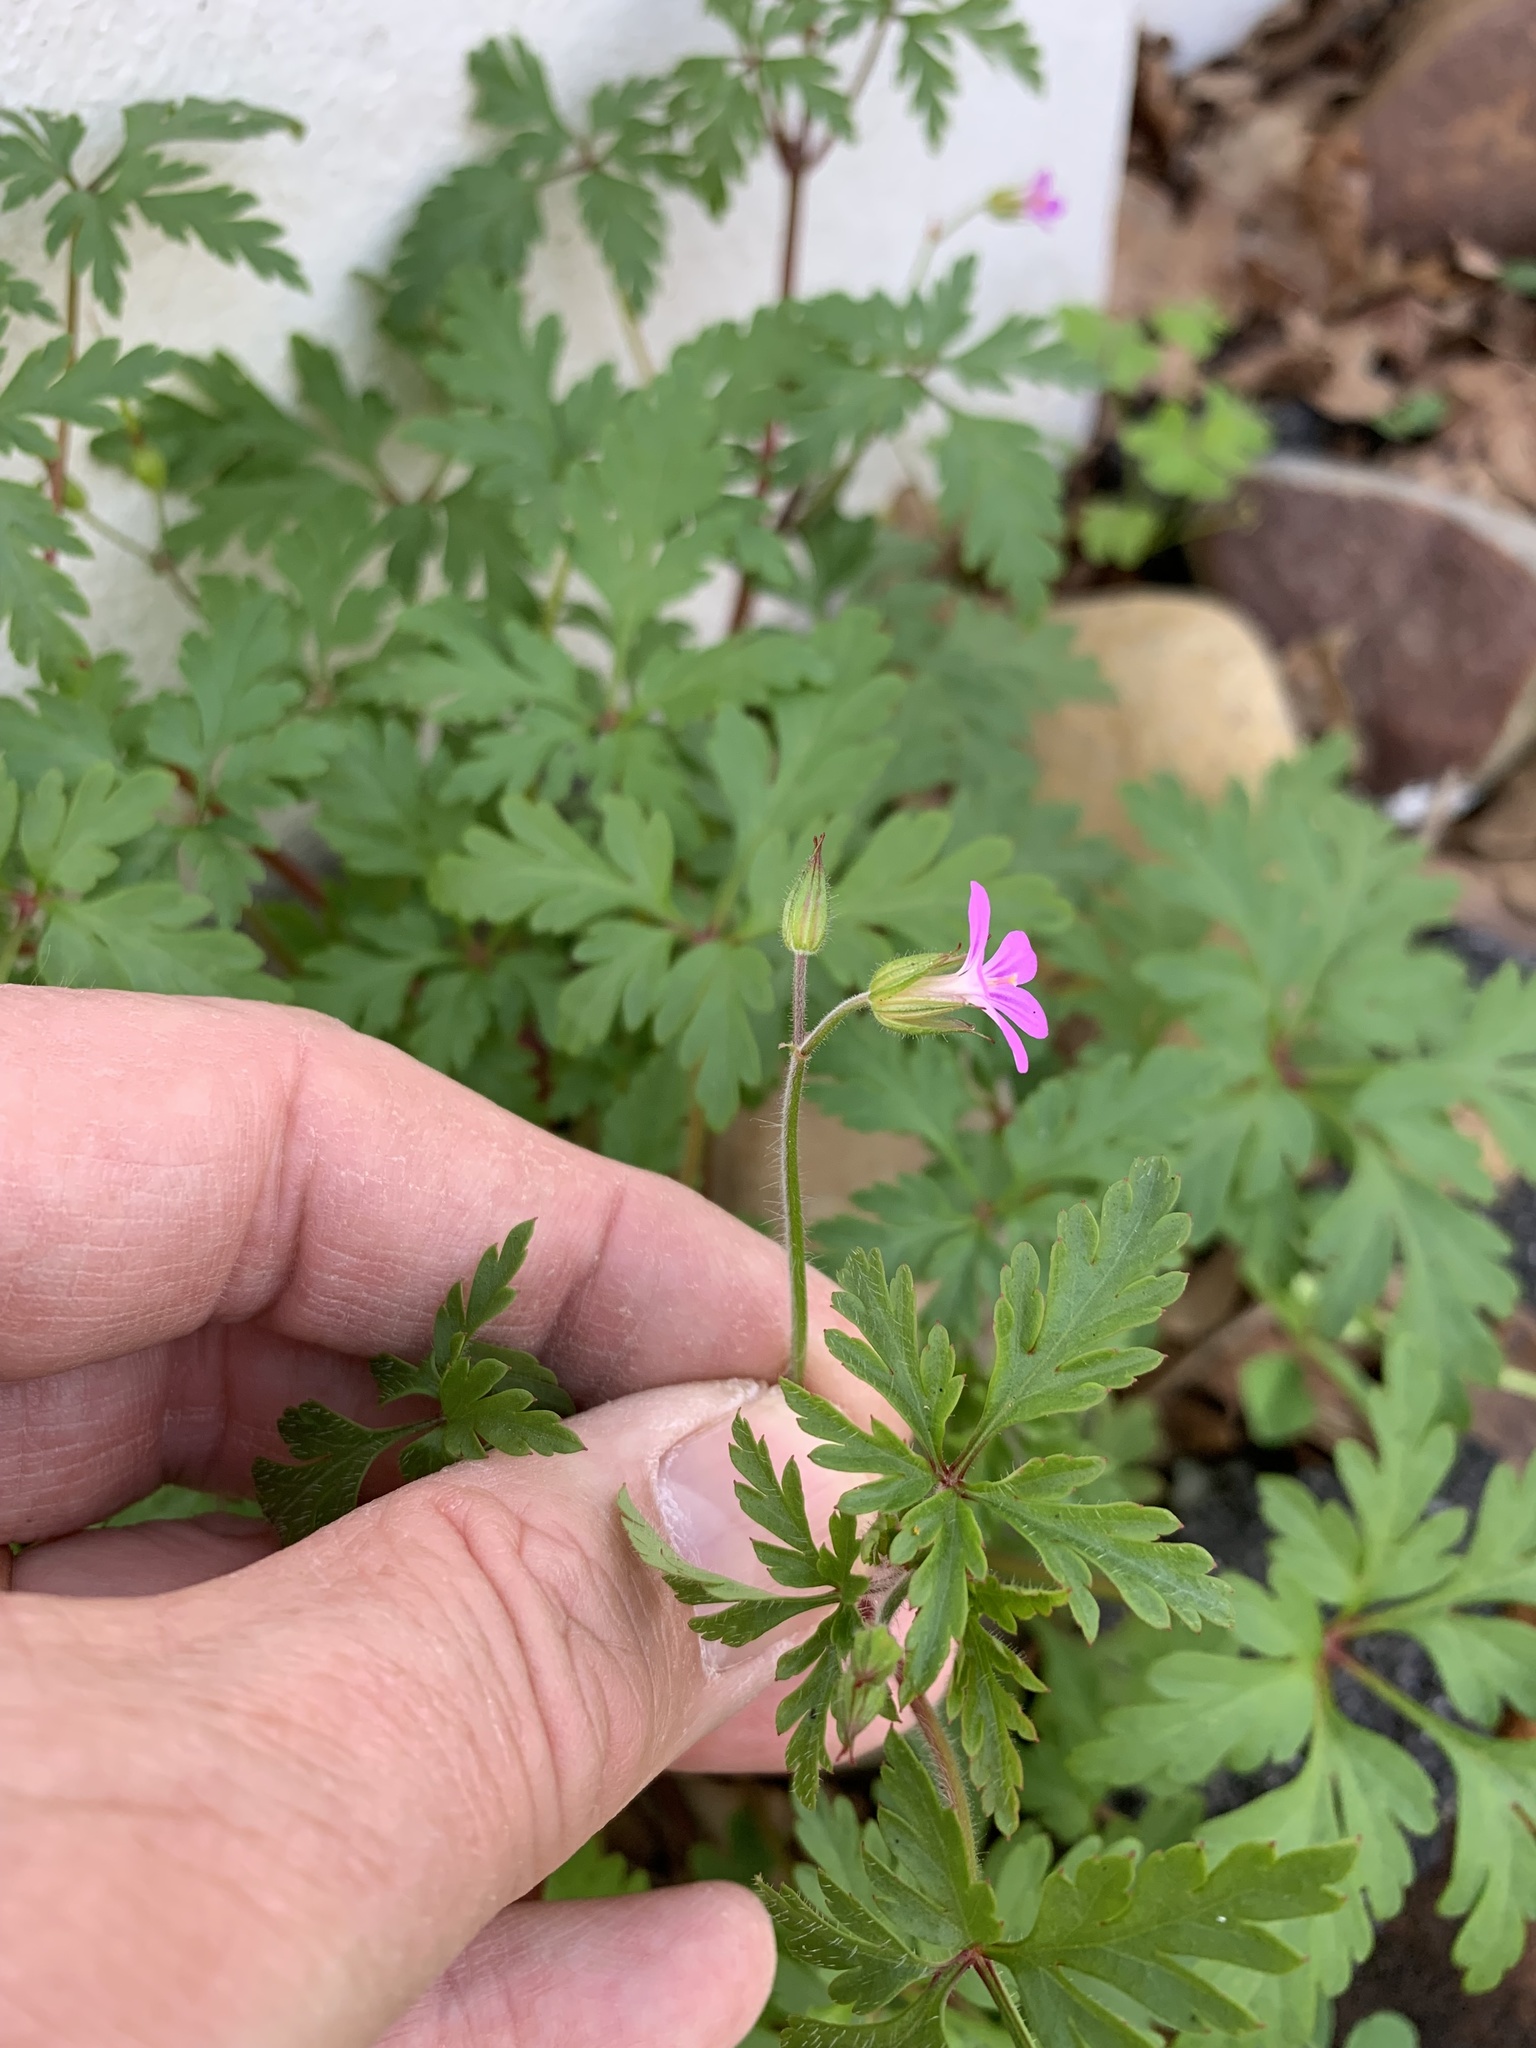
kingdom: Plantae
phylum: Tracheophyta
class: Magnoliopsida
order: Geraniales
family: Geraniaceae
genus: Geranium
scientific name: Geranium purpureum
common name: Little-robin
